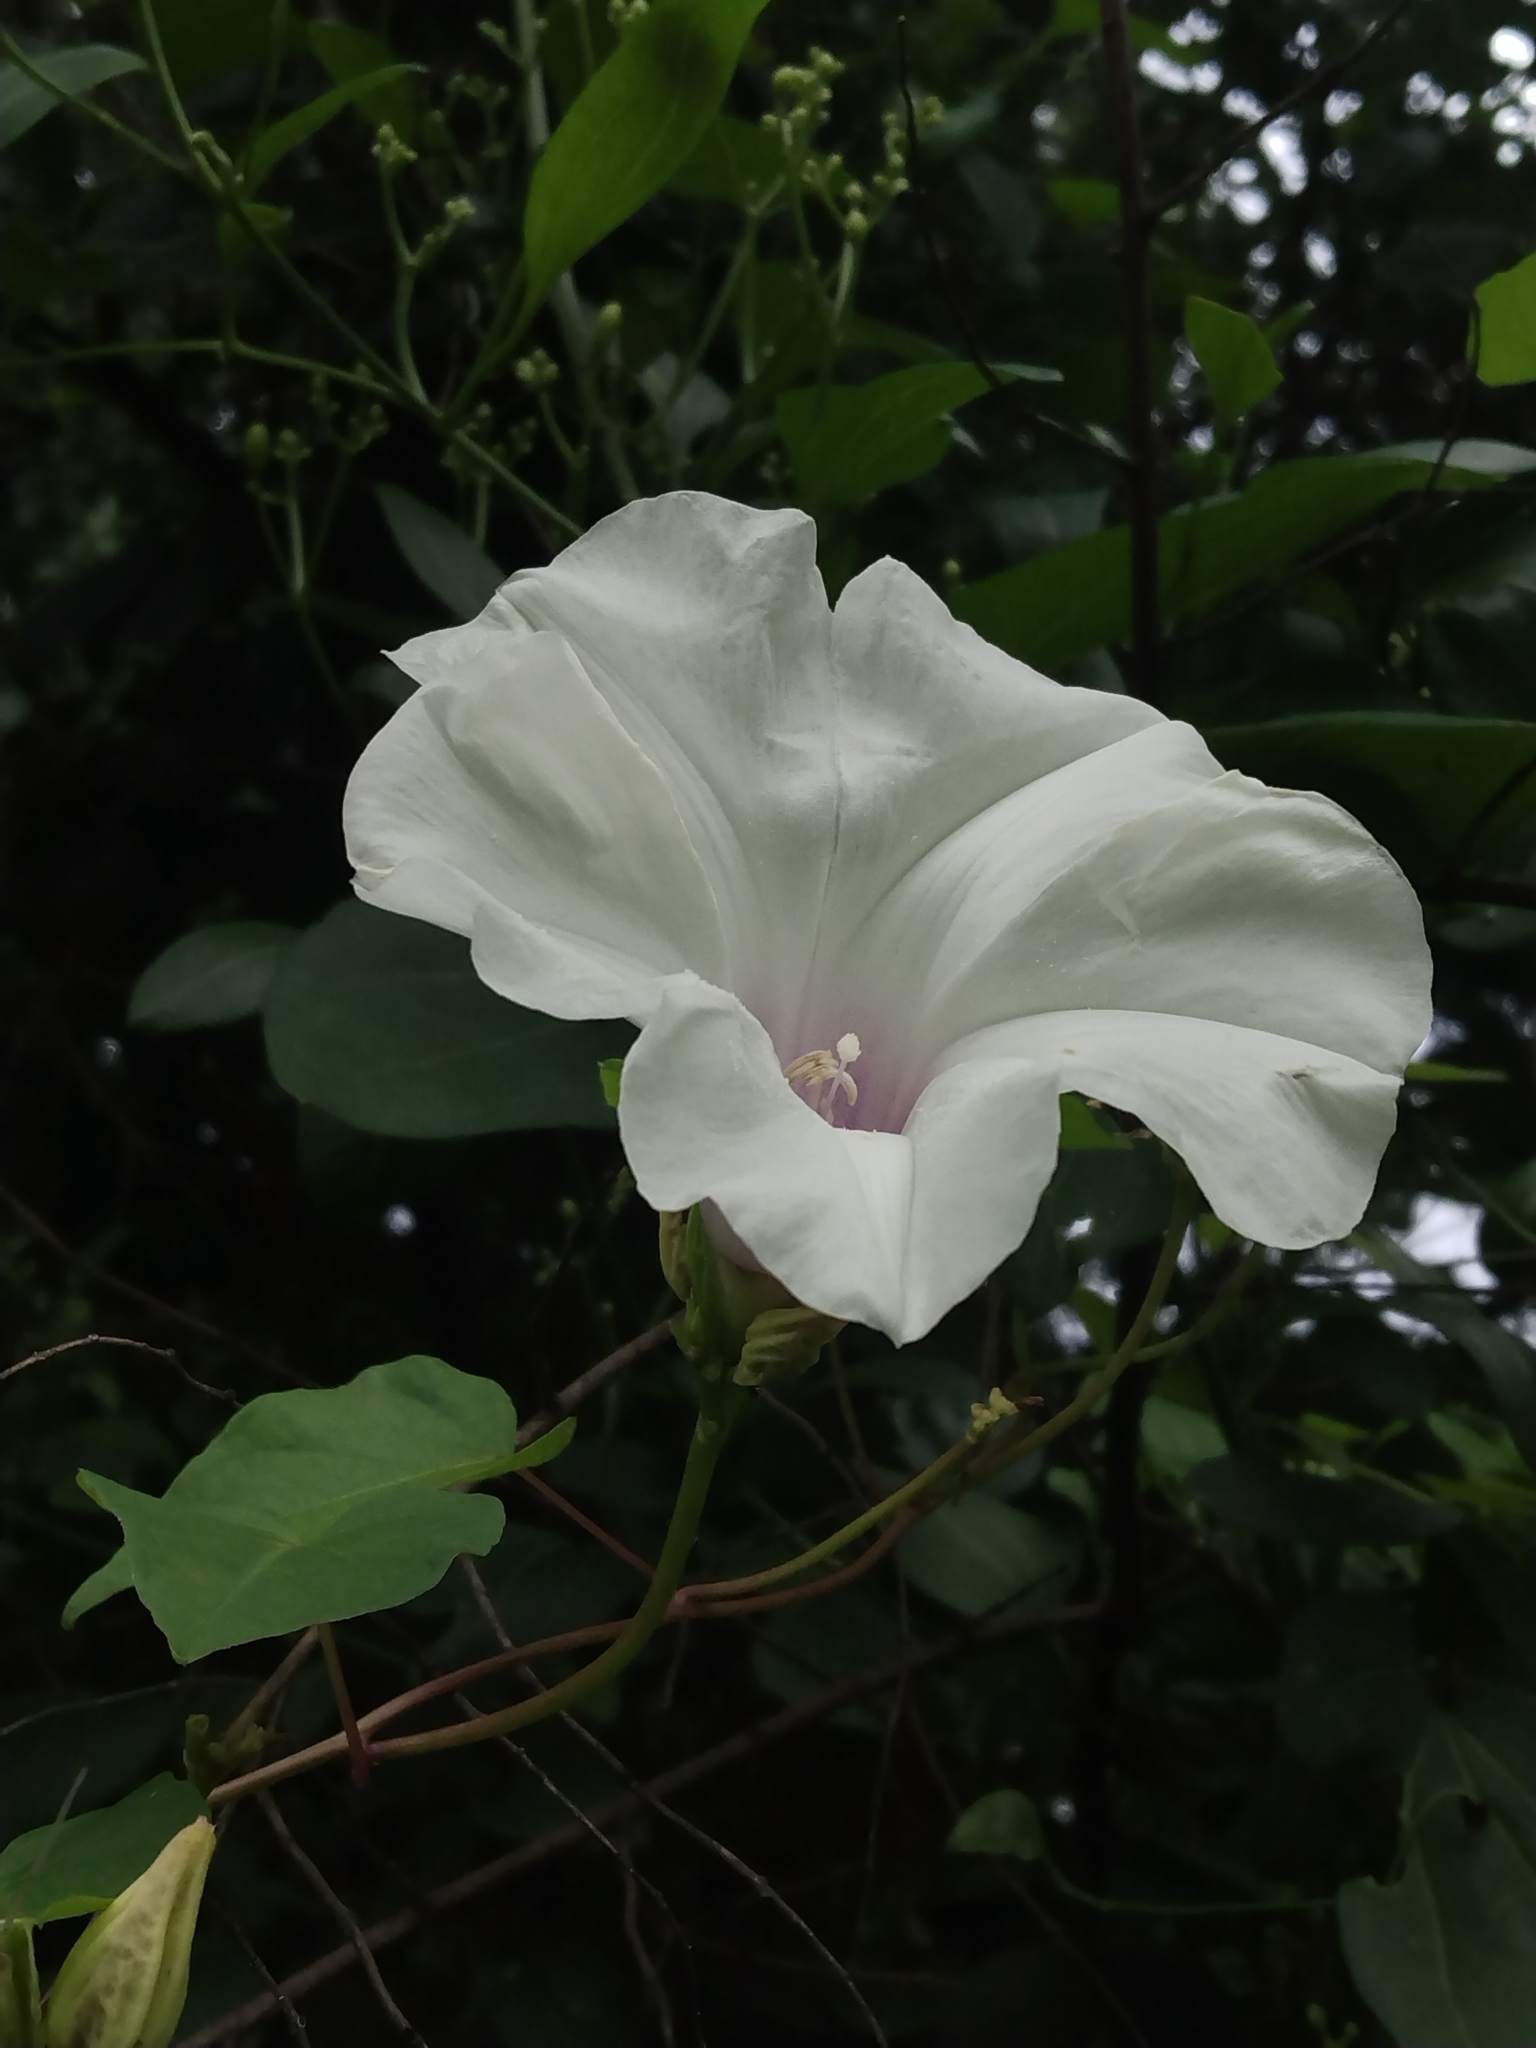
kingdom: Plantae
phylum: Tracheophyta
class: Magnoliopsida
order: Solanales
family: Convolvulaceae
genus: Ipomoea
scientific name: Ipomoea pandurata
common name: Man-of-the-earth
